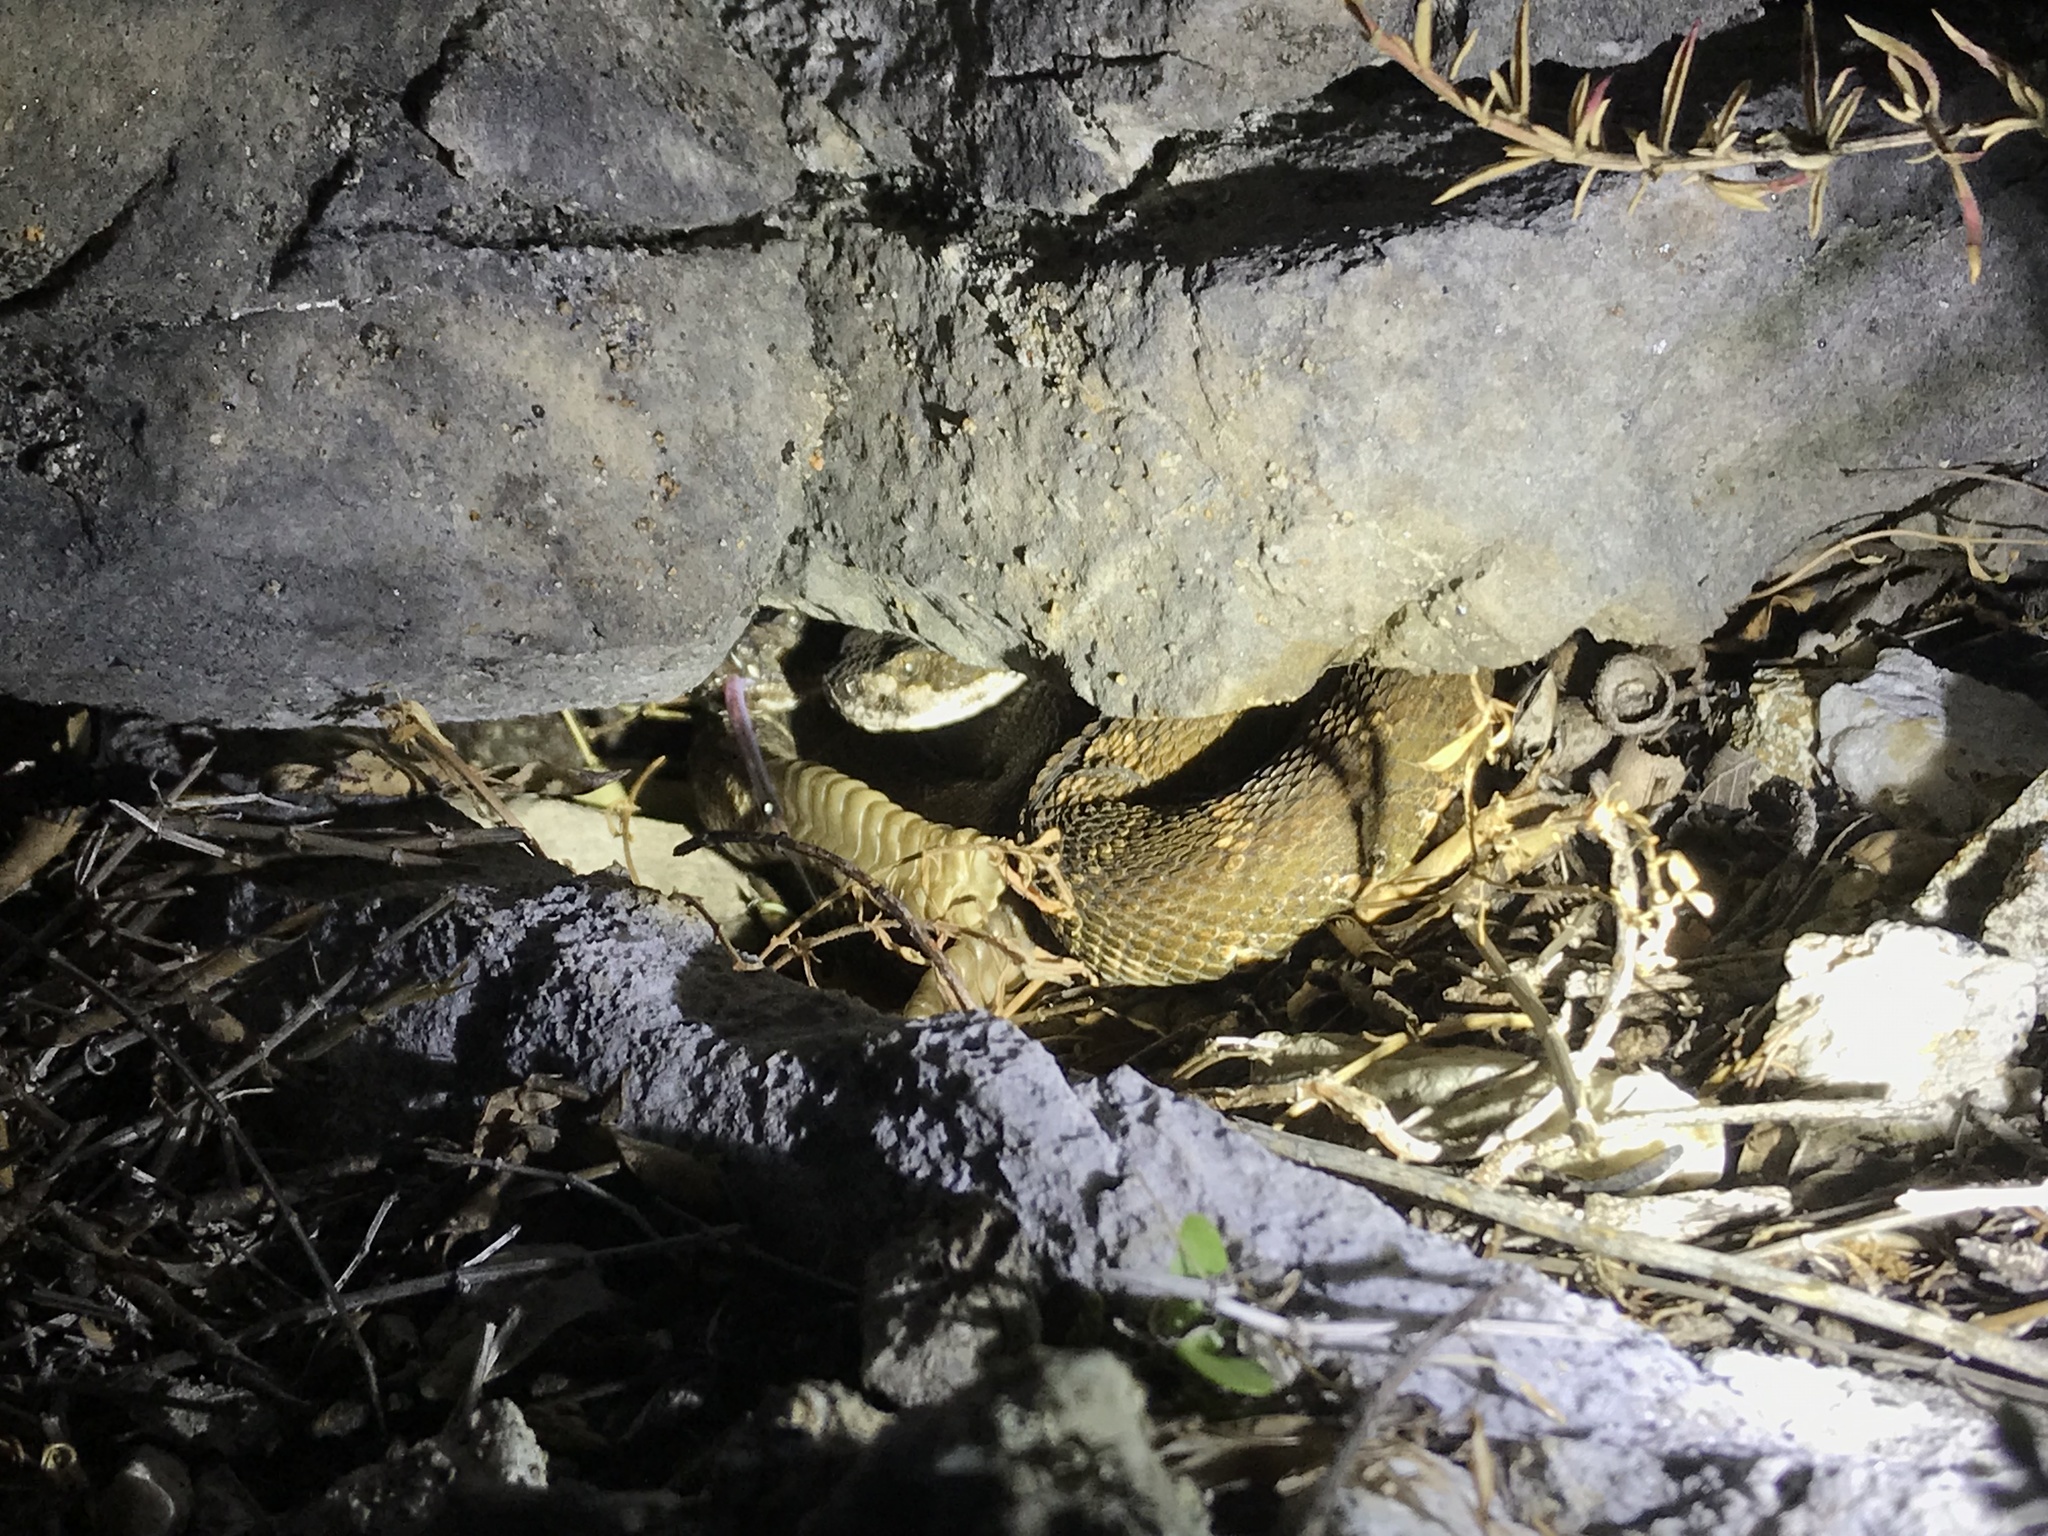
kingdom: Animalia
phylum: Chordata
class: Squamata
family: Viperidae
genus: Crotalus
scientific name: Crotalus oreganus
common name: Abyssus
